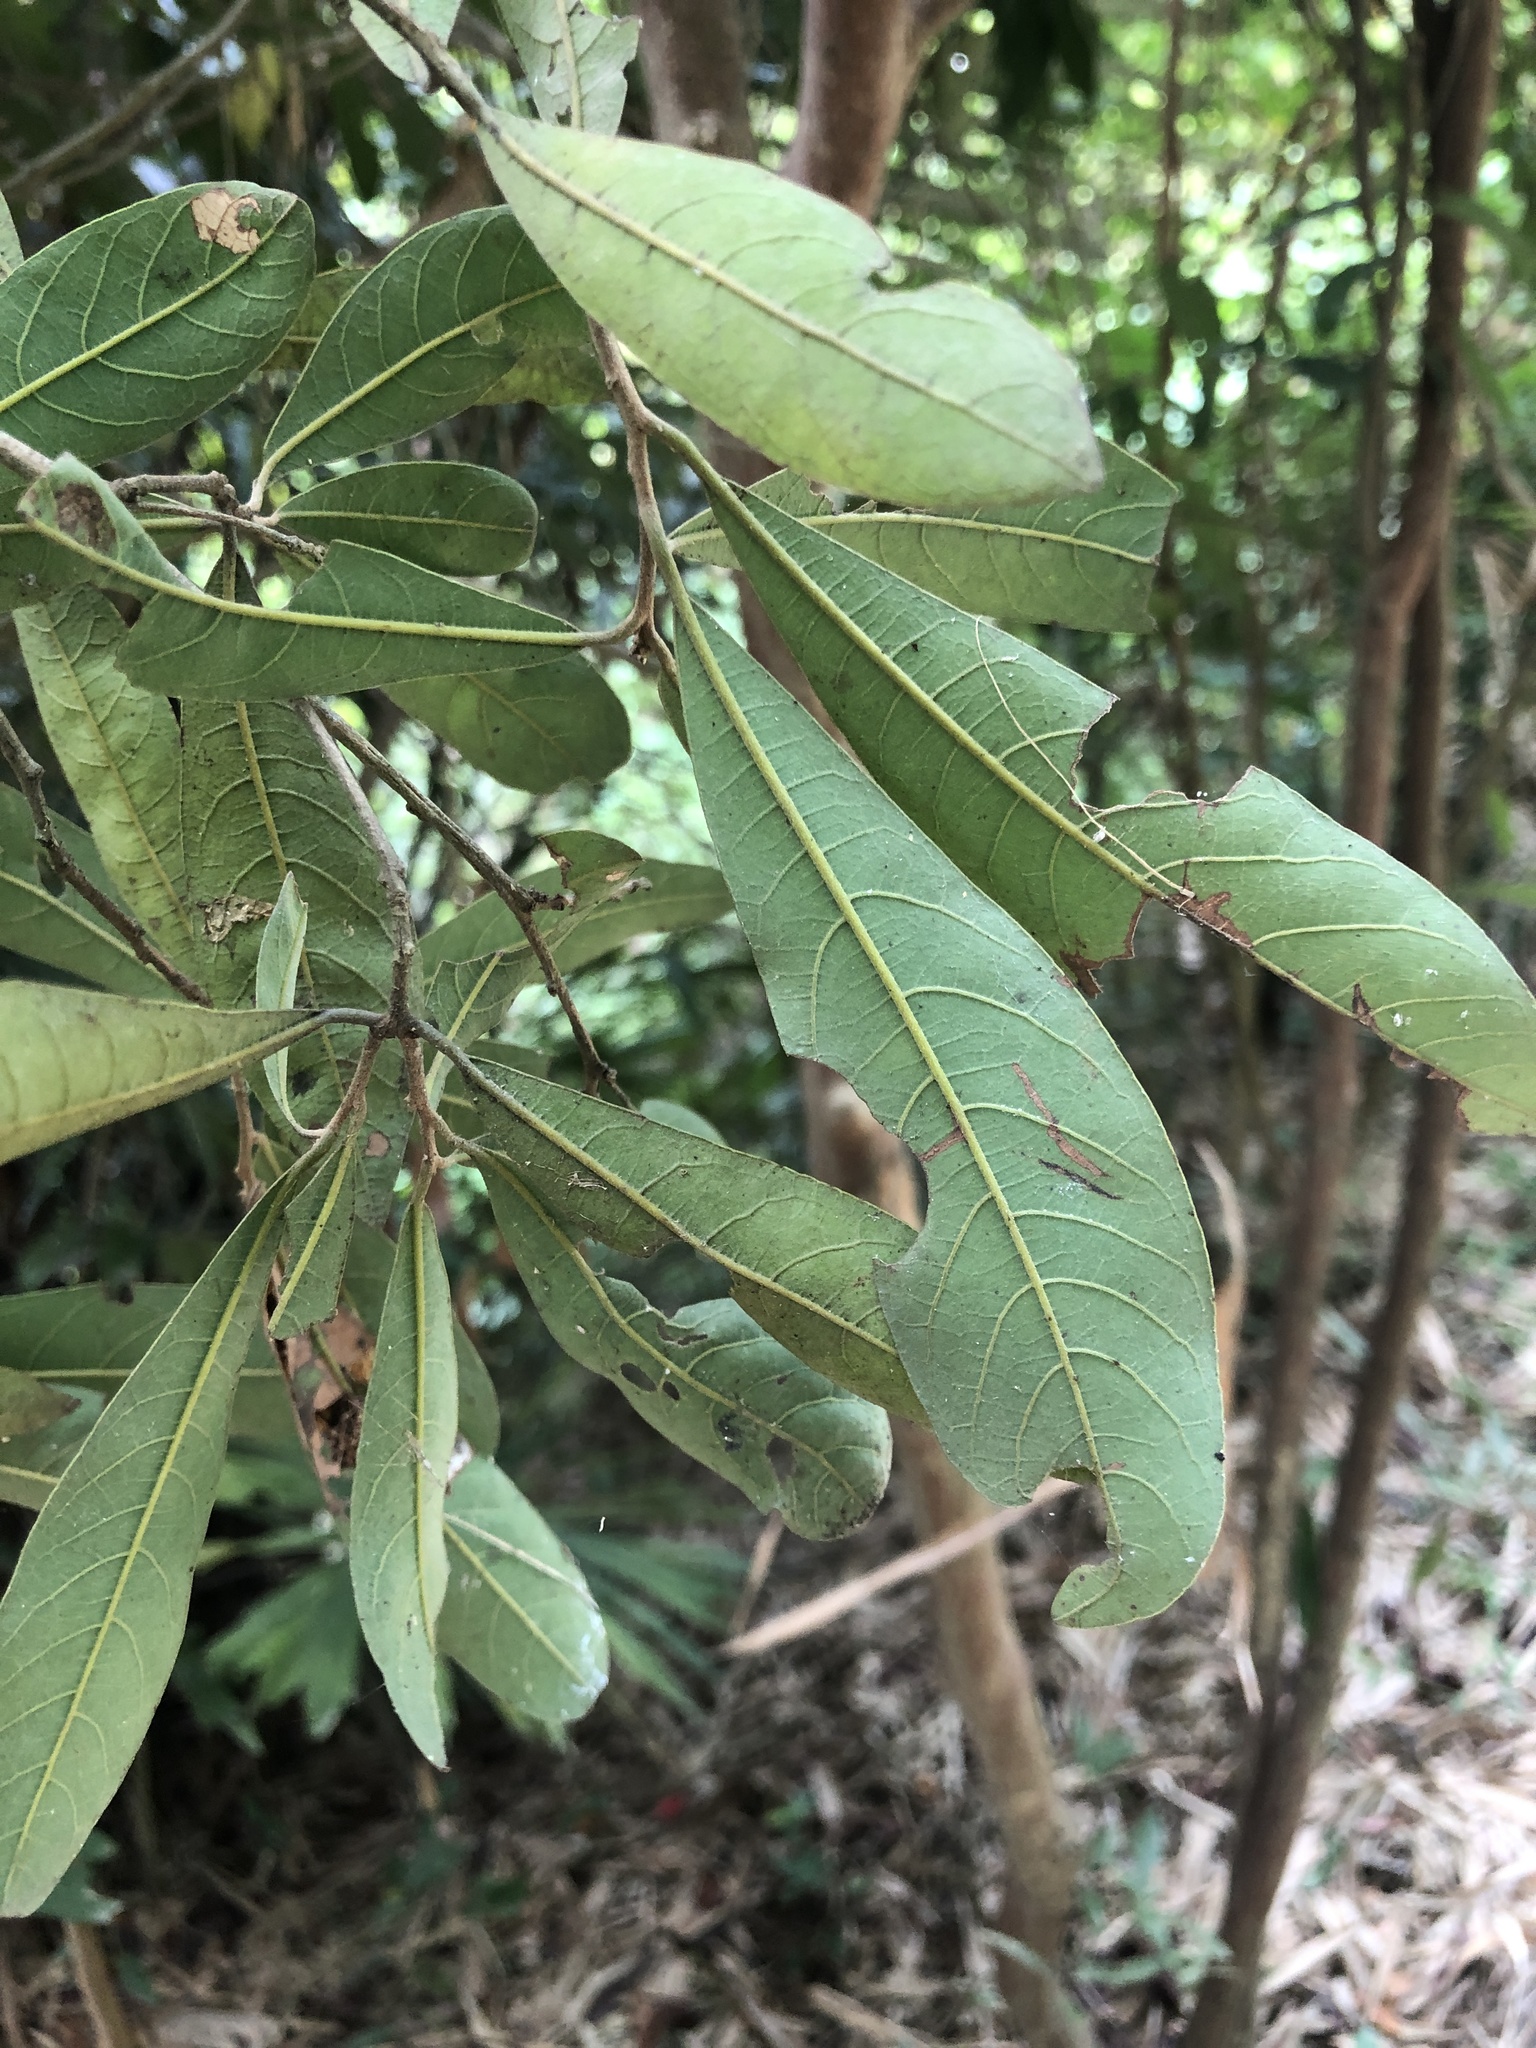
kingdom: Plantae
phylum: Tracheophyta
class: Magnoliopsida
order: Laurales
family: Lauraceae
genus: Litsea
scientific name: Litsea hypophaea
